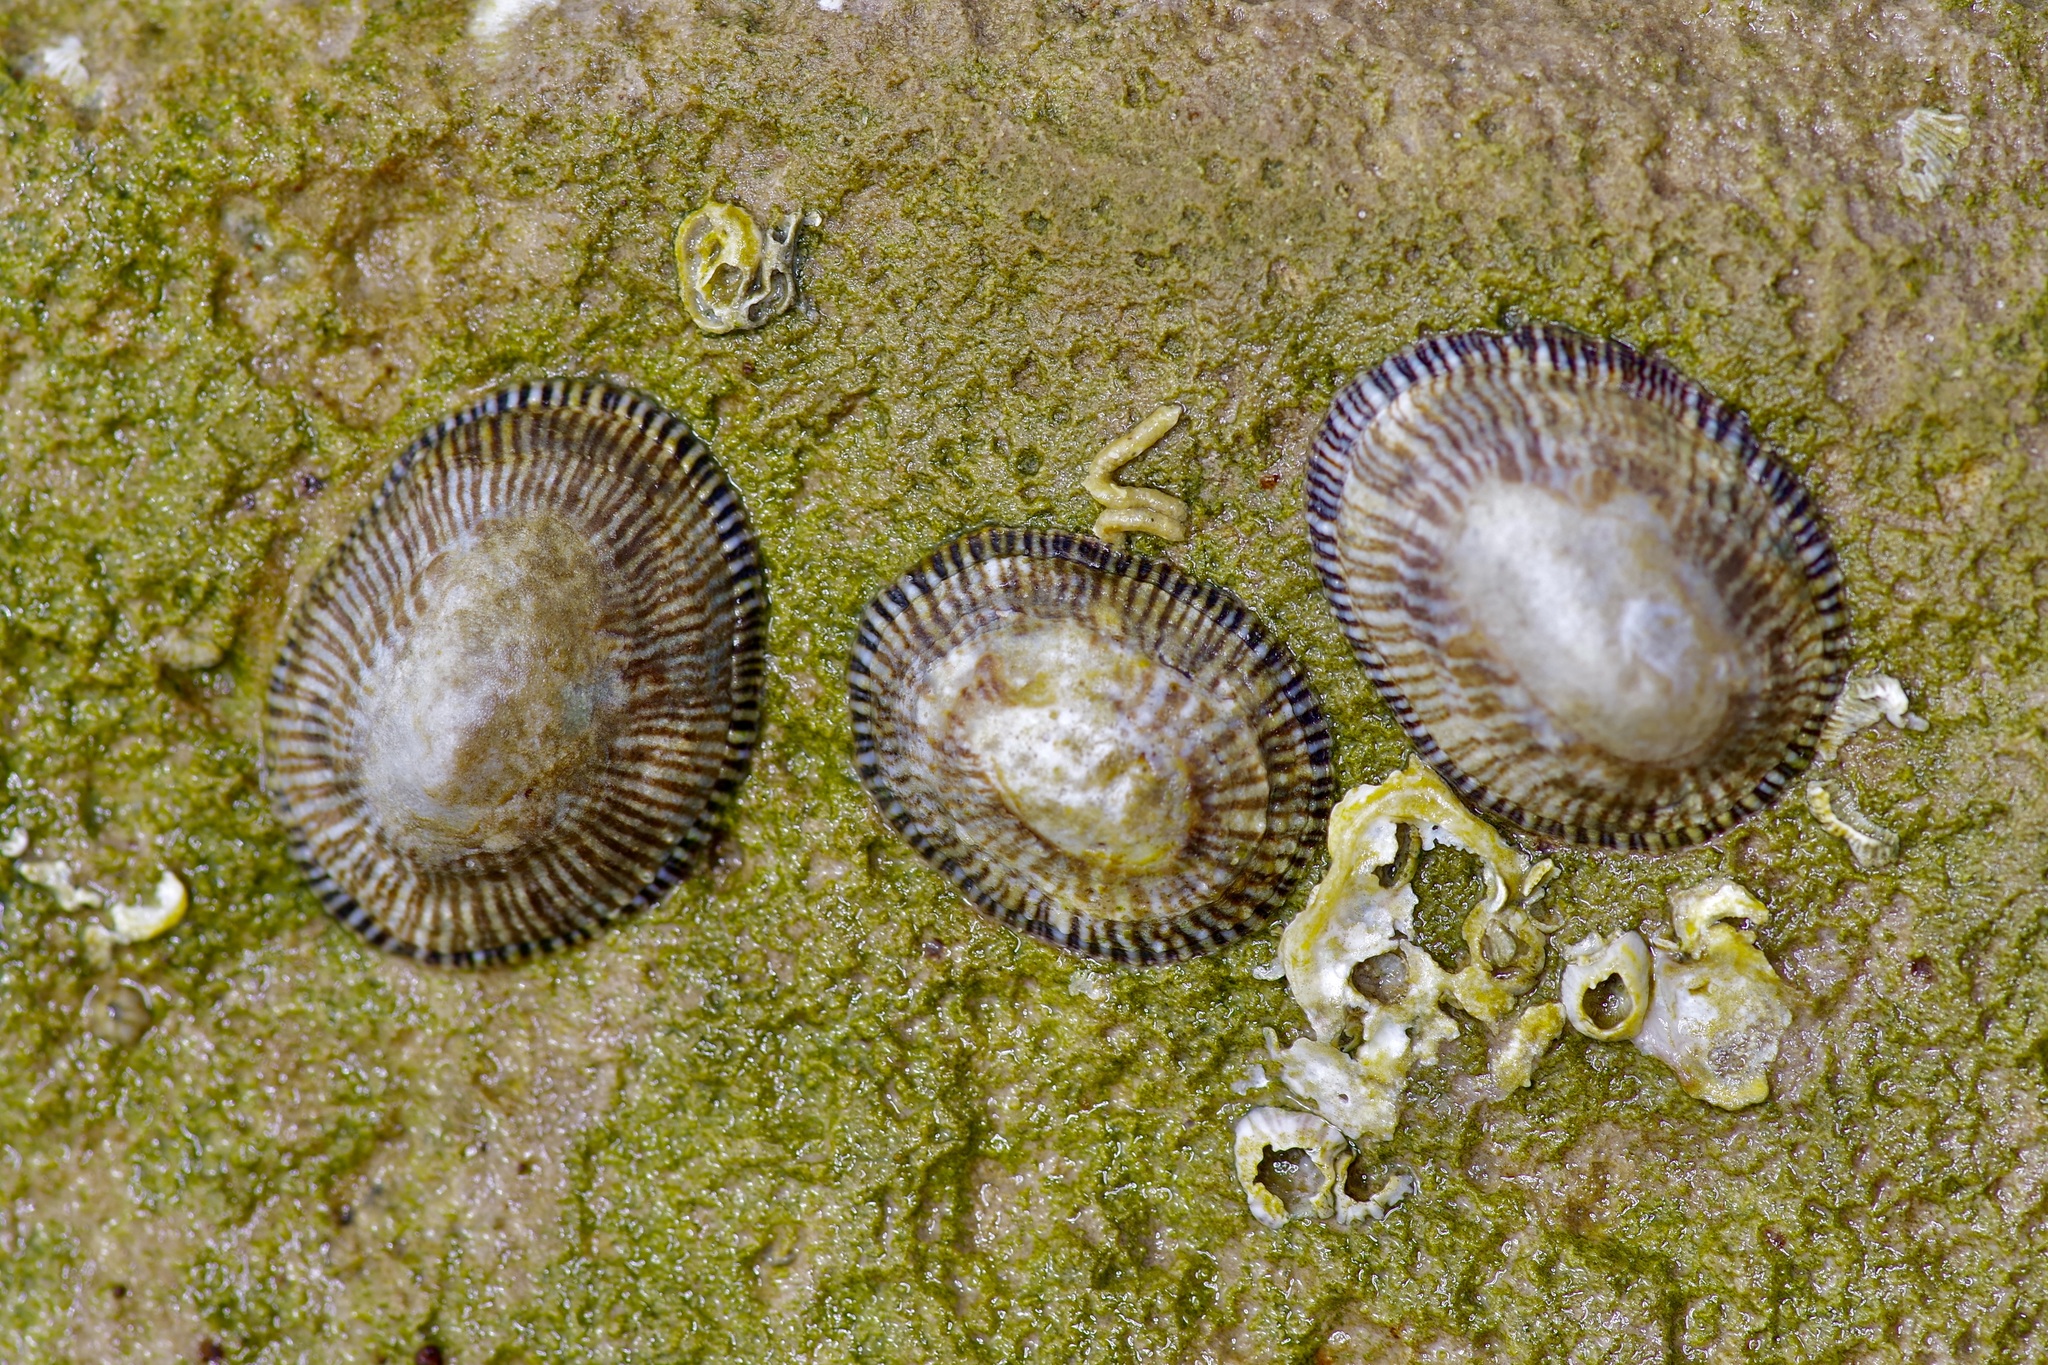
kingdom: Animalia
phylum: Mollusca
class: Gastropoda
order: Siphonariida
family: Siphonariidae
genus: Siphonaria
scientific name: Siphonaria naufragum
